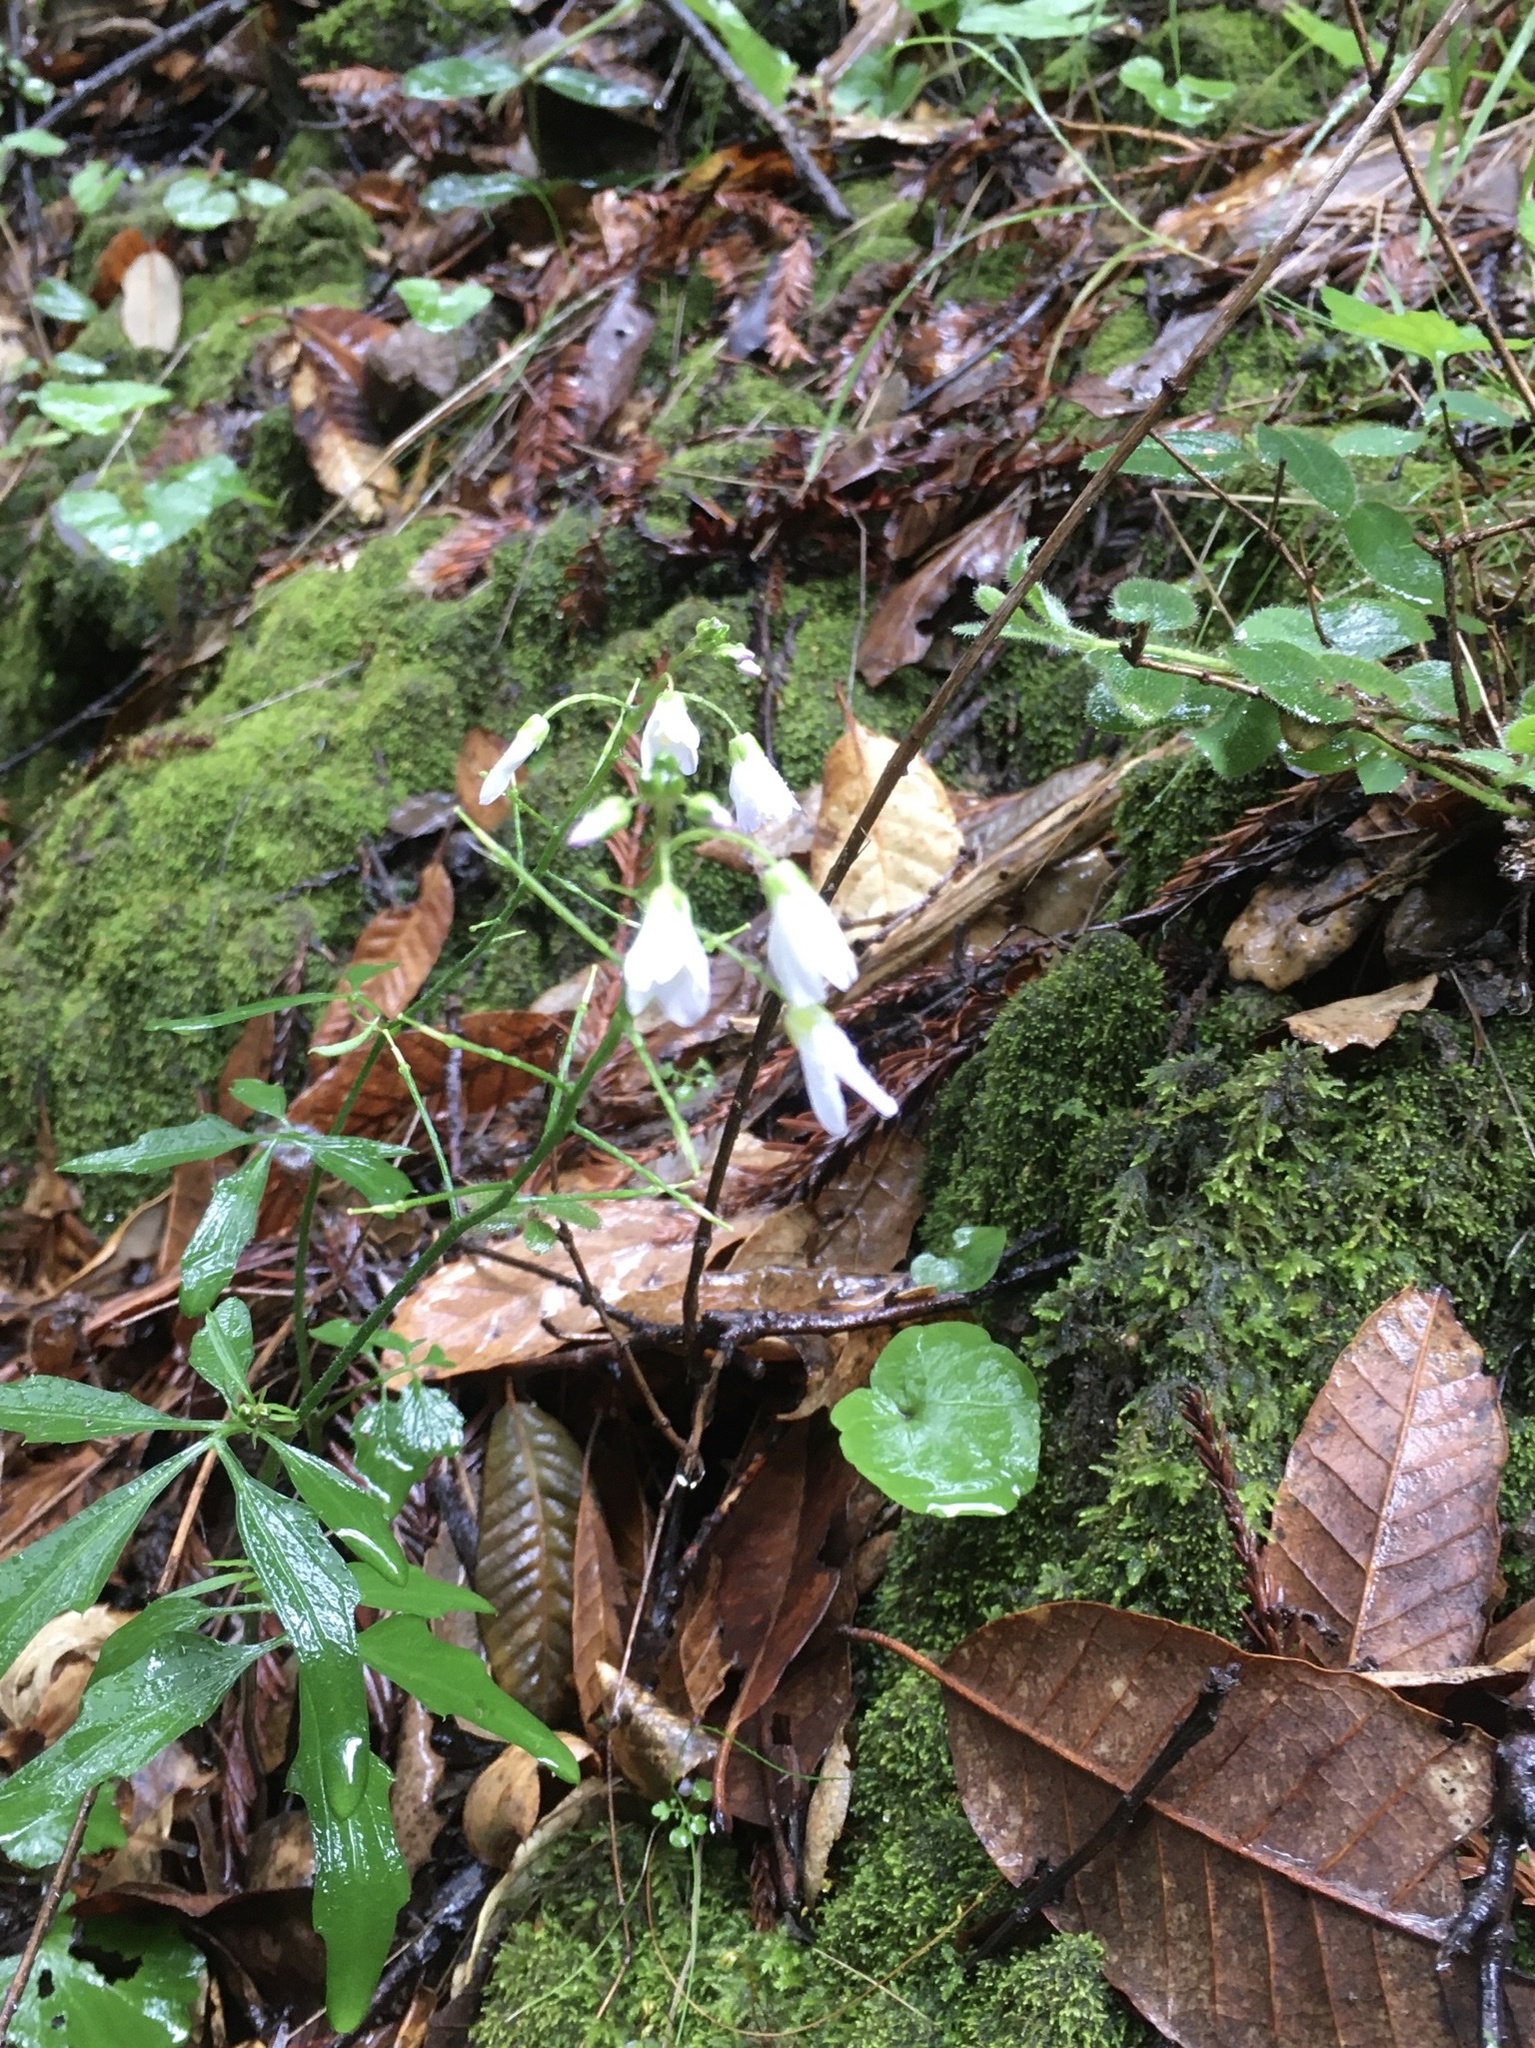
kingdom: Plantae
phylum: Tracheophyta
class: Magnoliopsida
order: Brassicales
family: Brassicaceae
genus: Cardamine
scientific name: Cardamine californica
